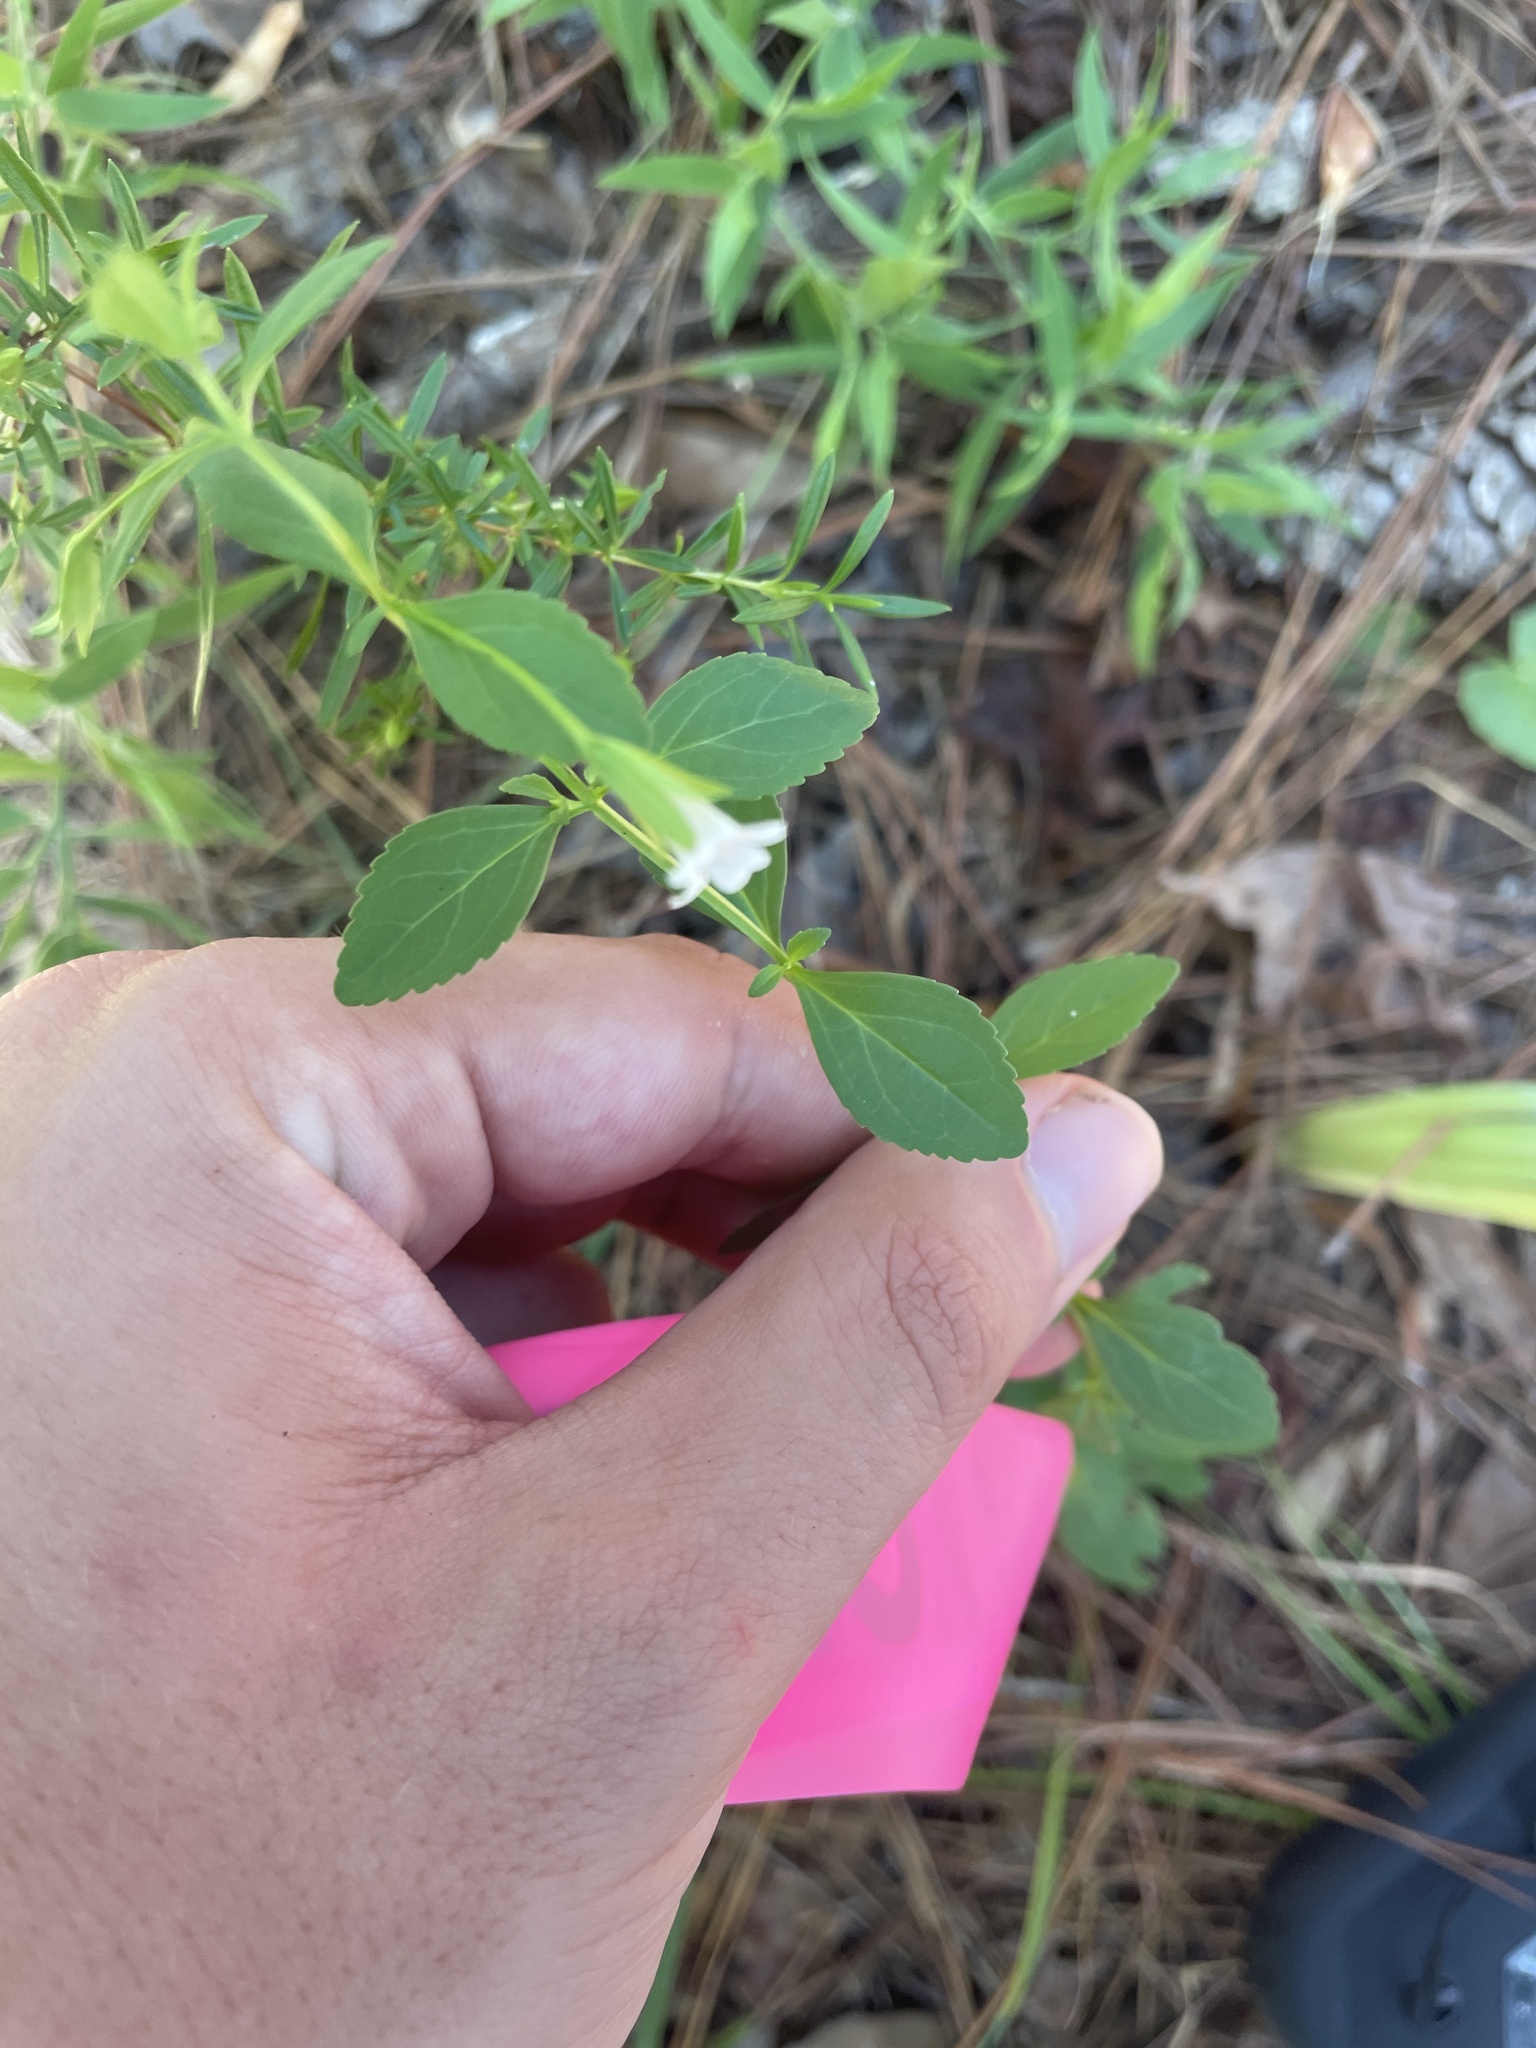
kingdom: Plantae
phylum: Tracheophyta
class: Magnoliopsida
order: Lamiales
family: Plantaginaceae
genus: Mecardonia
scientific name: Mecardonia acuminata
